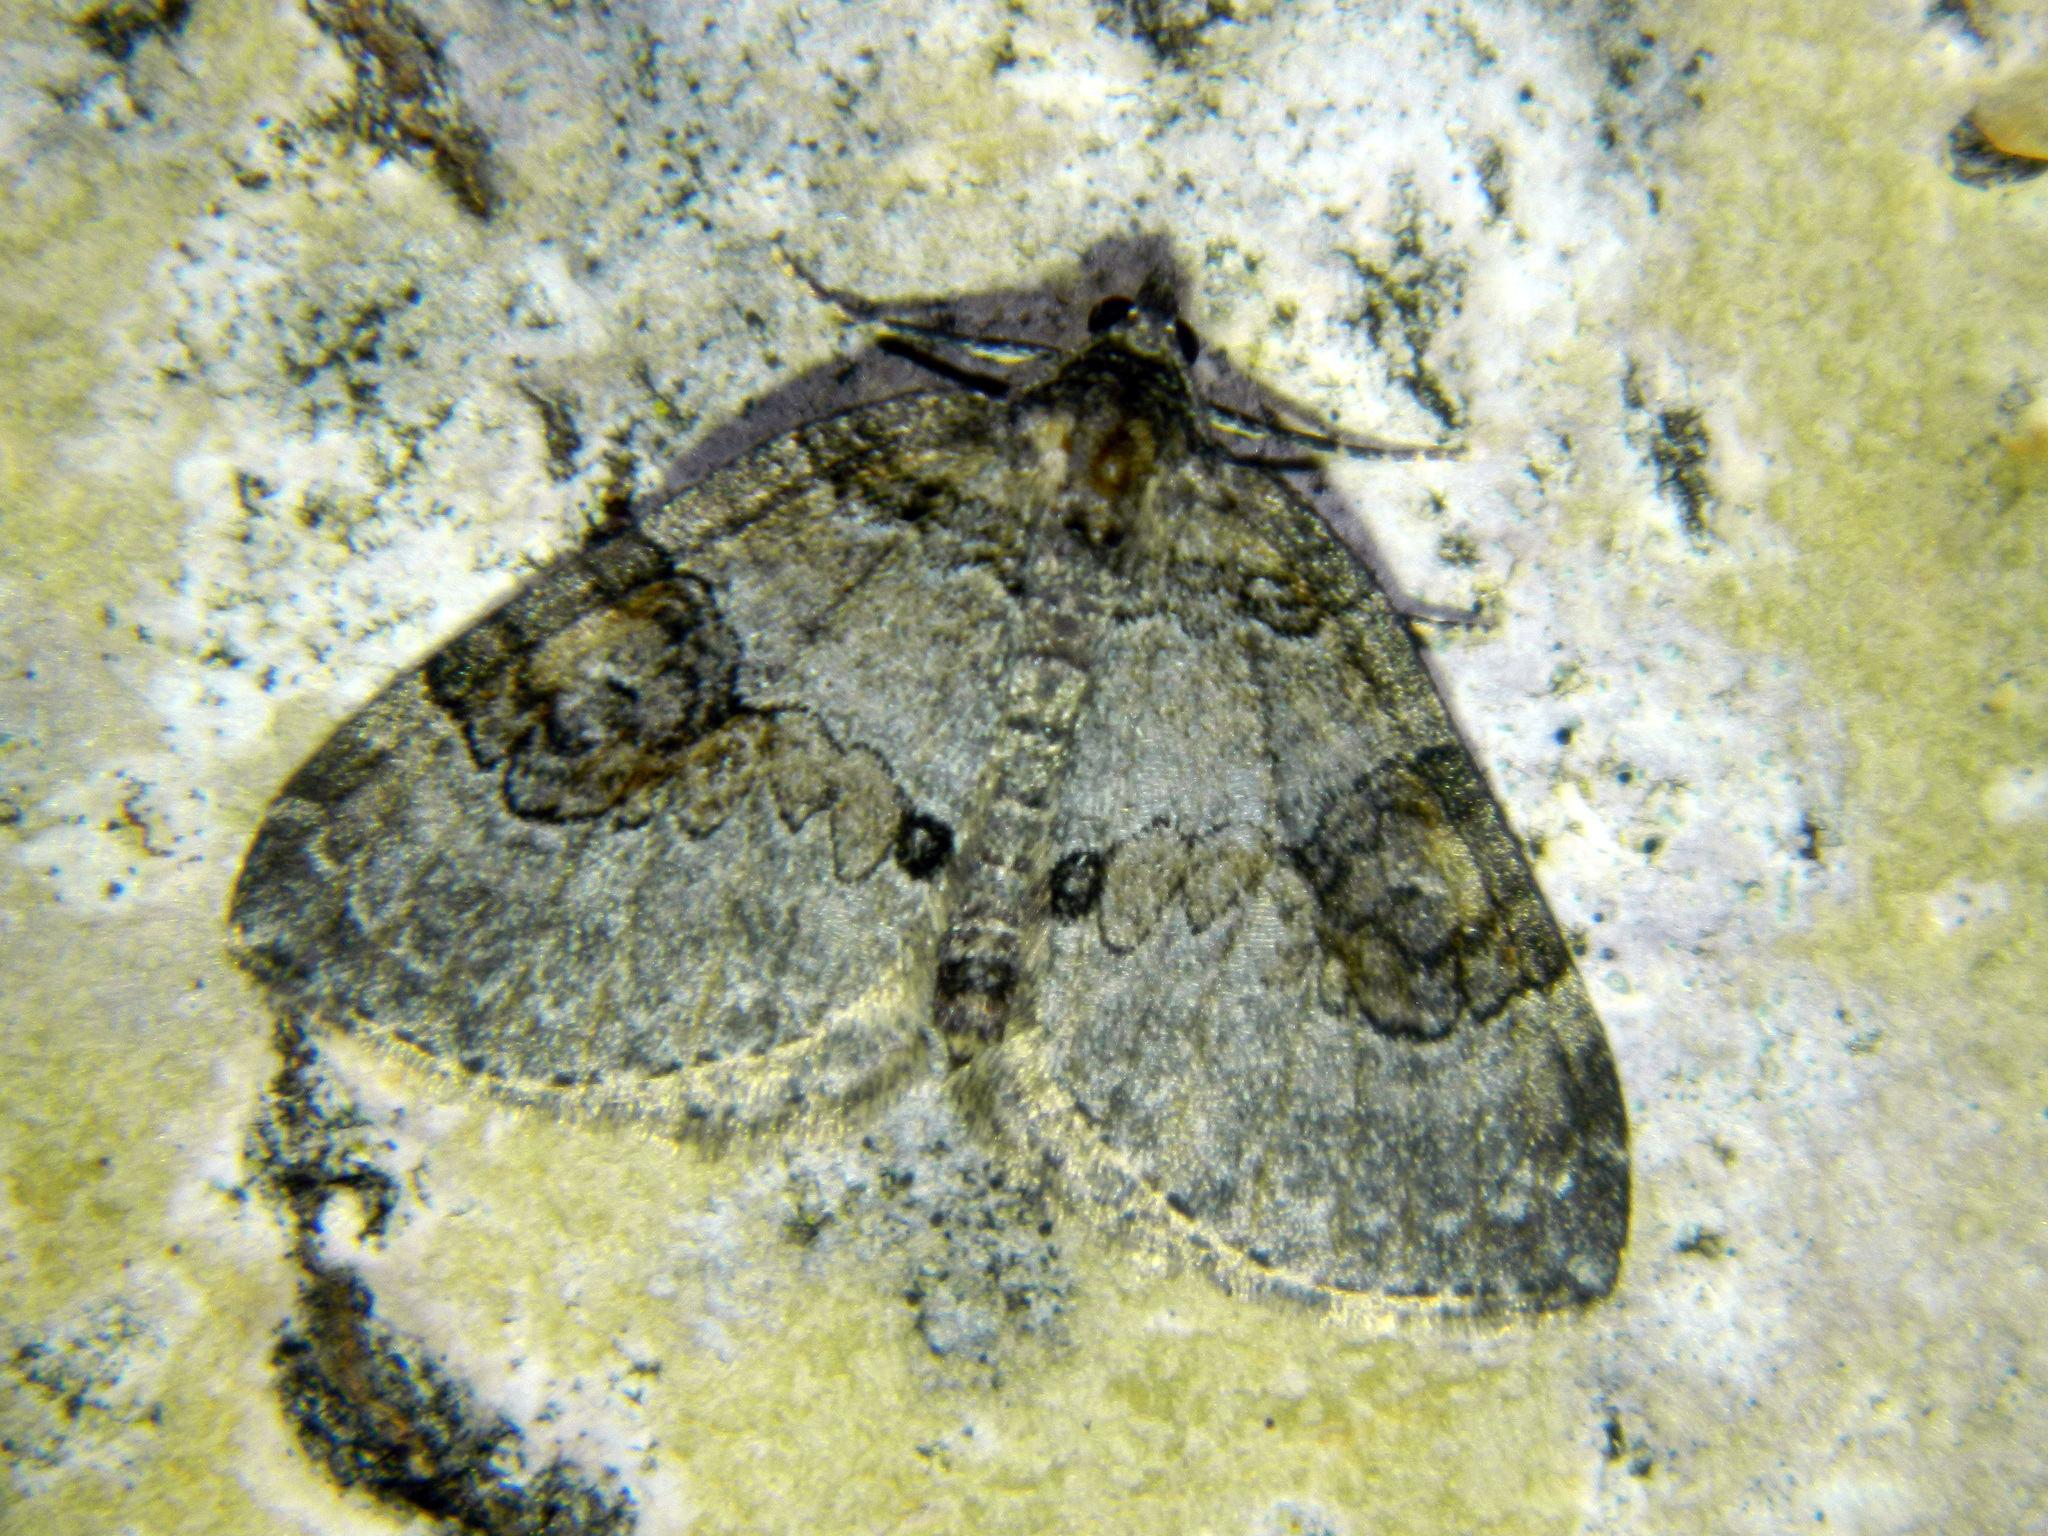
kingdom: Animalia
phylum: Arthropoda
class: Insecta
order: Lepidoptera
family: Geometridae
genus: Plemyria
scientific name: Plemyria georgii
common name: George's carpet moth
